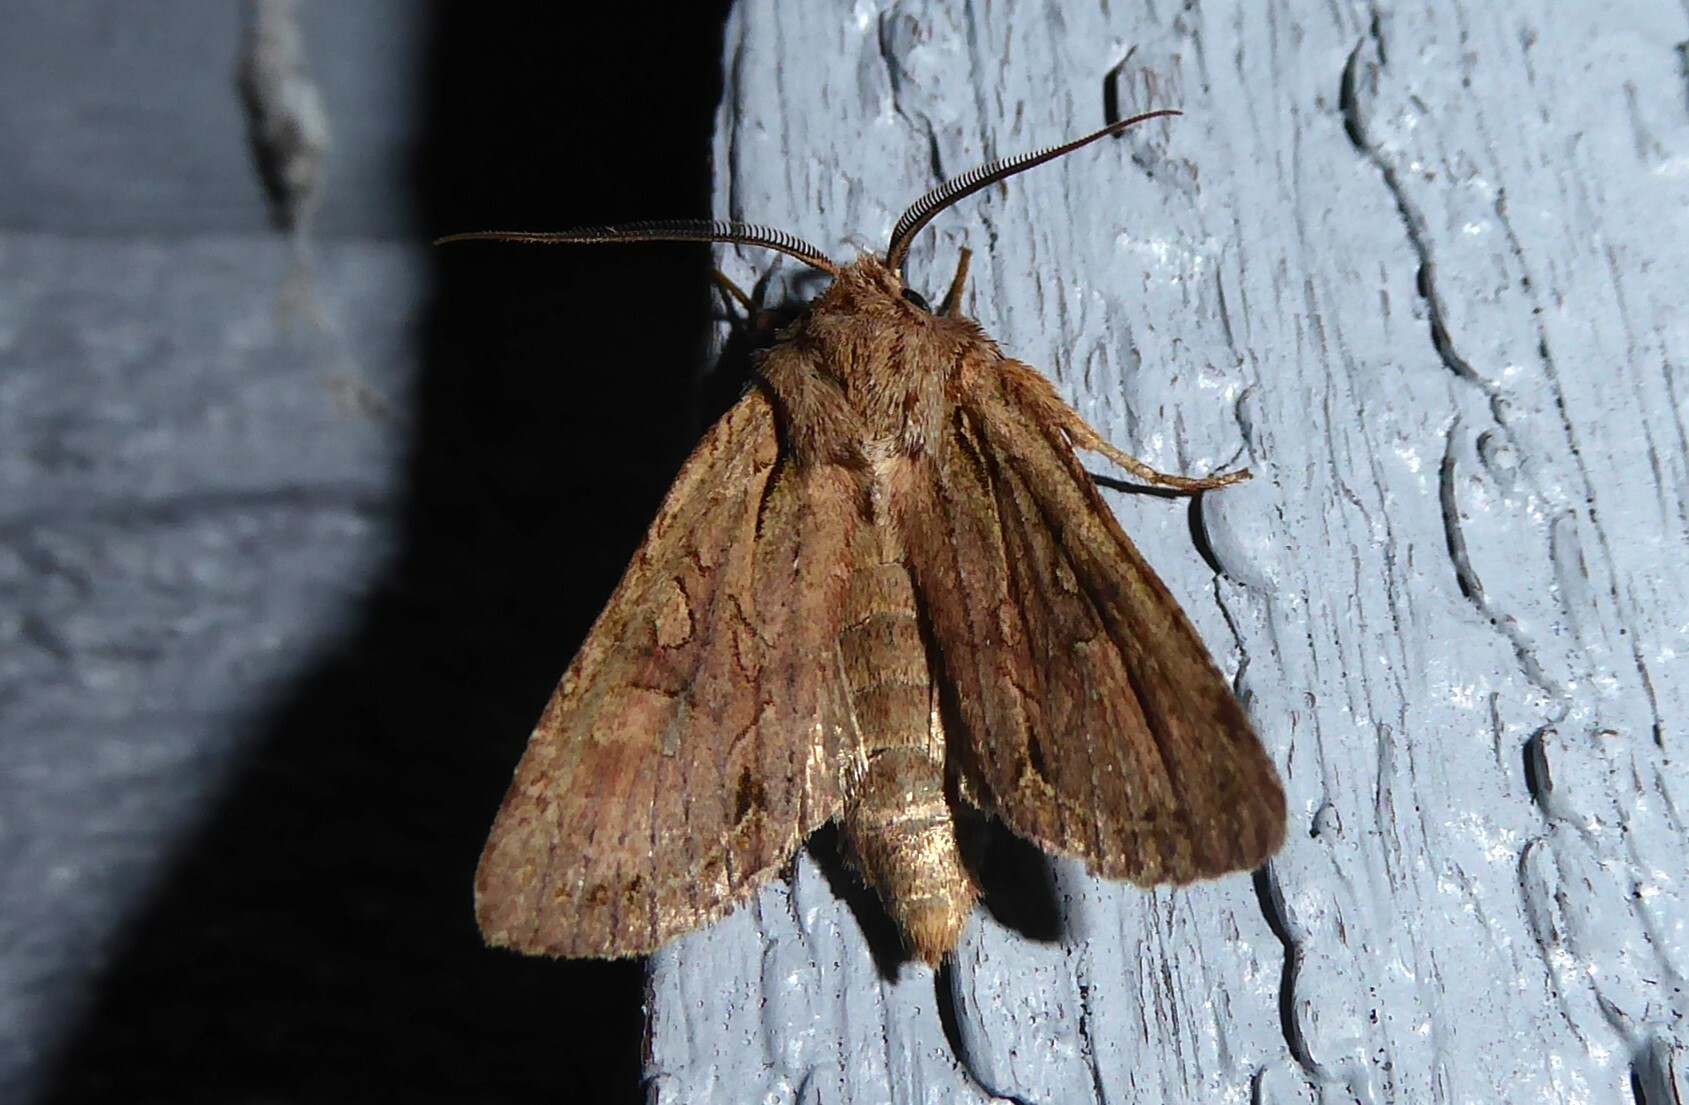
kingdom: Animalia
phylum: Arthropoda
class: Insecta
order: Lepidoptera
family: Noctuidae
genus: Ichneutica
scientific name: Ichneutica
